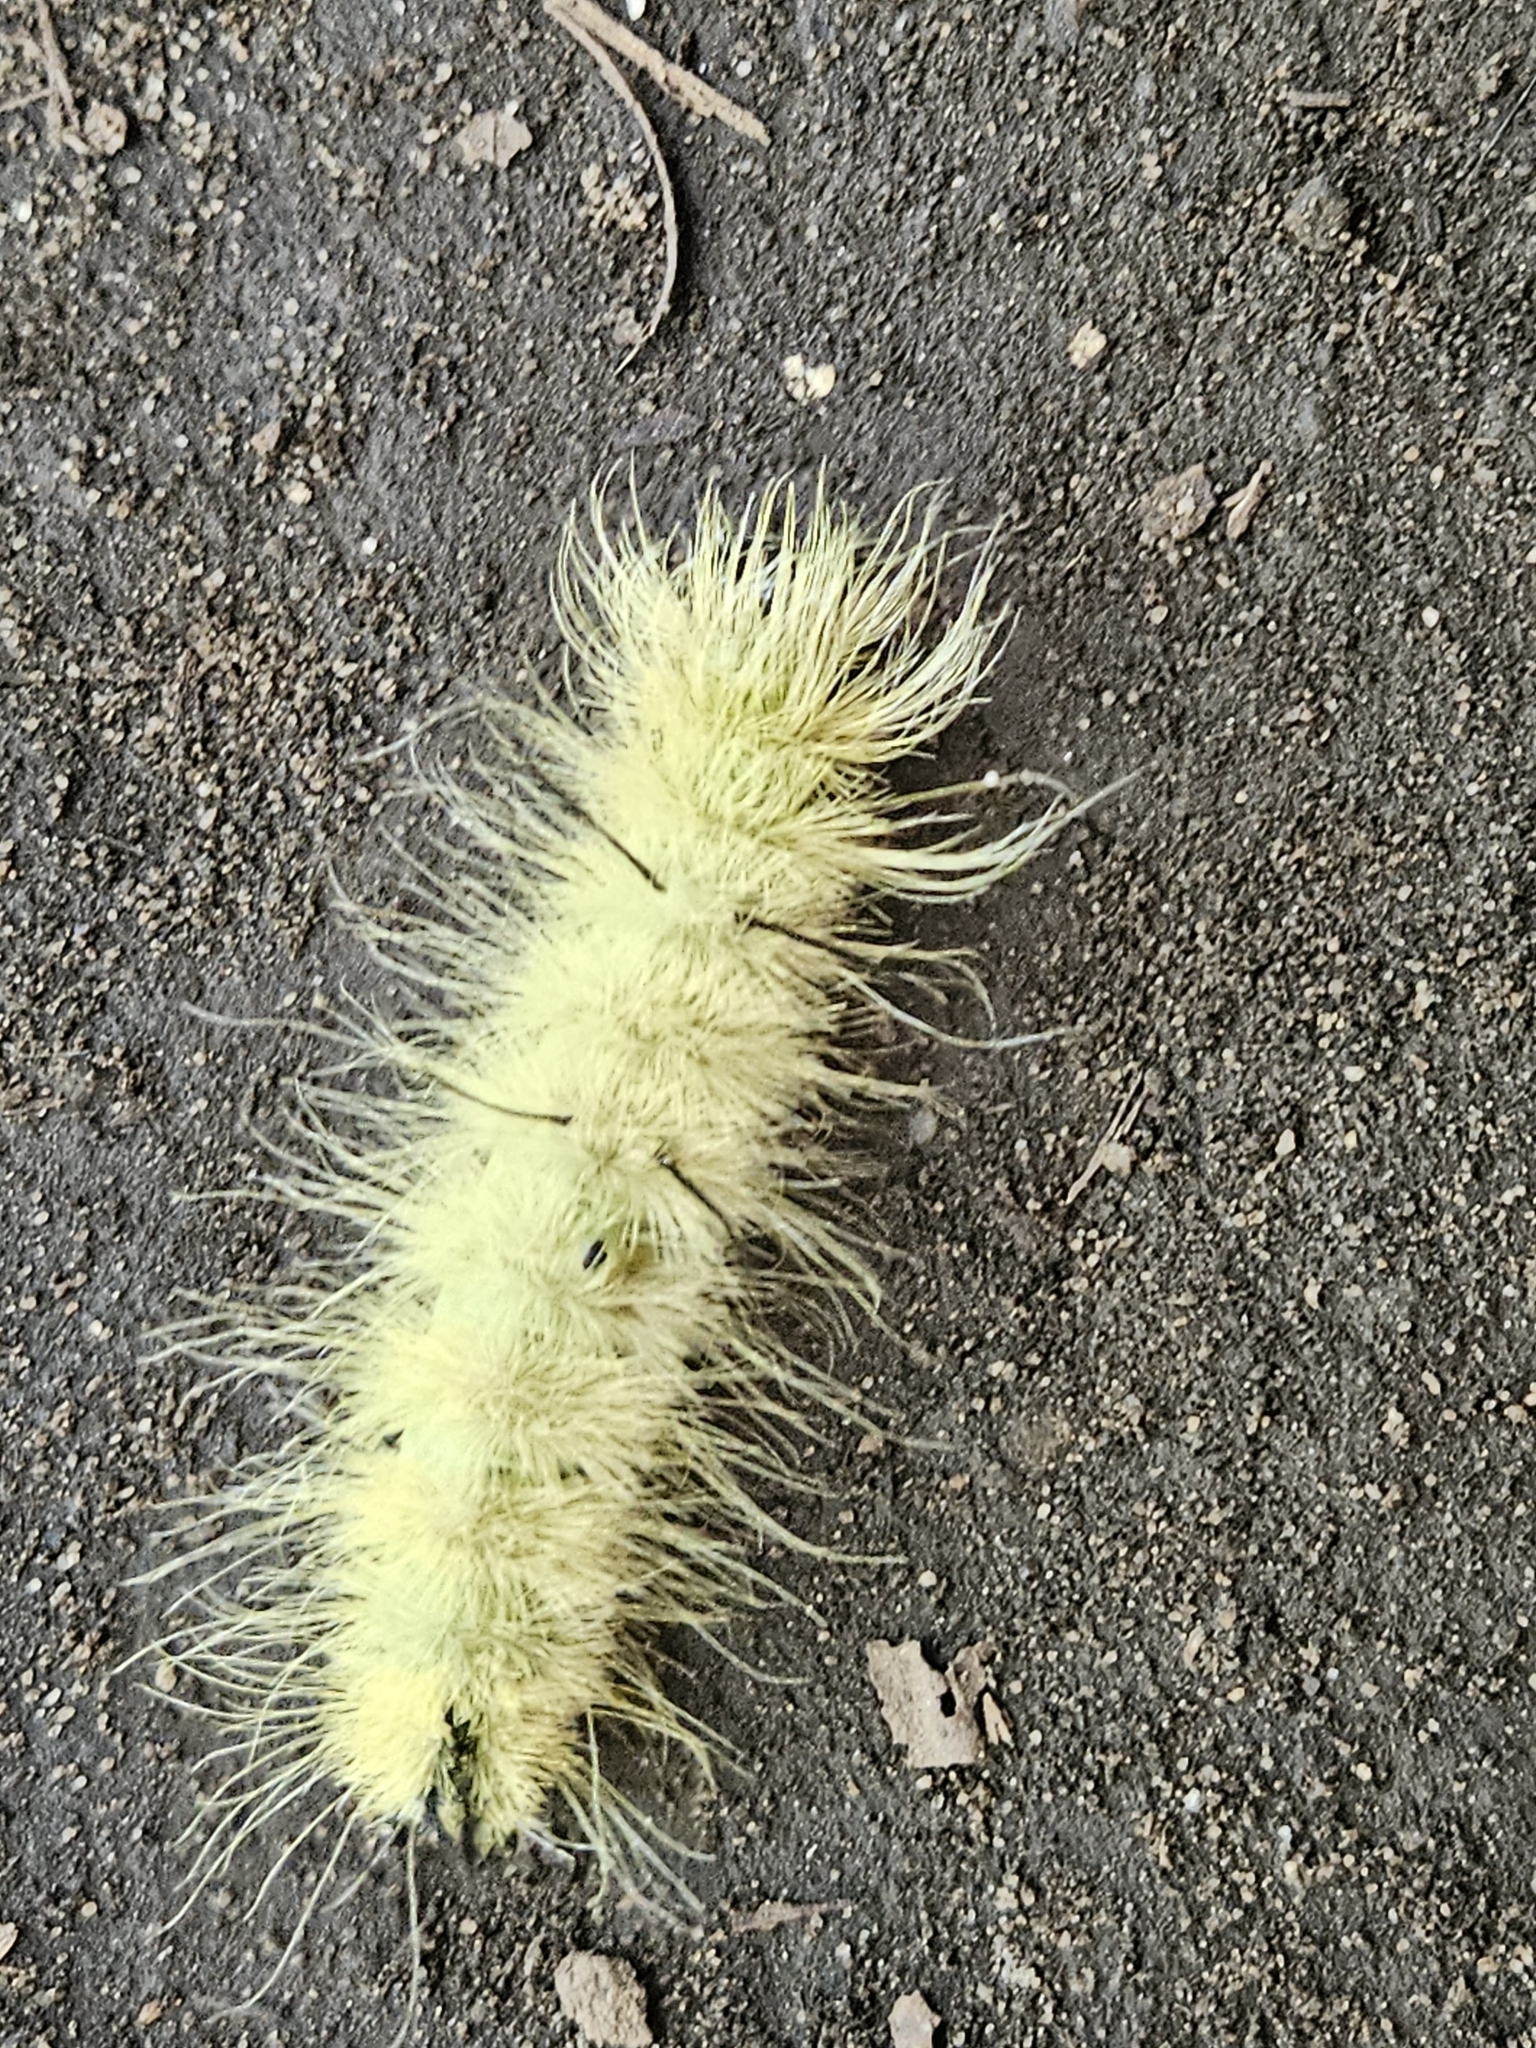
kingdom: Animalia
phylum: Arthropoda
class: Insecta
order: Lepidoptera
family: Noctuidae
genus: Acronicta
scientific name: Acronicta americana
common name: American dagger
